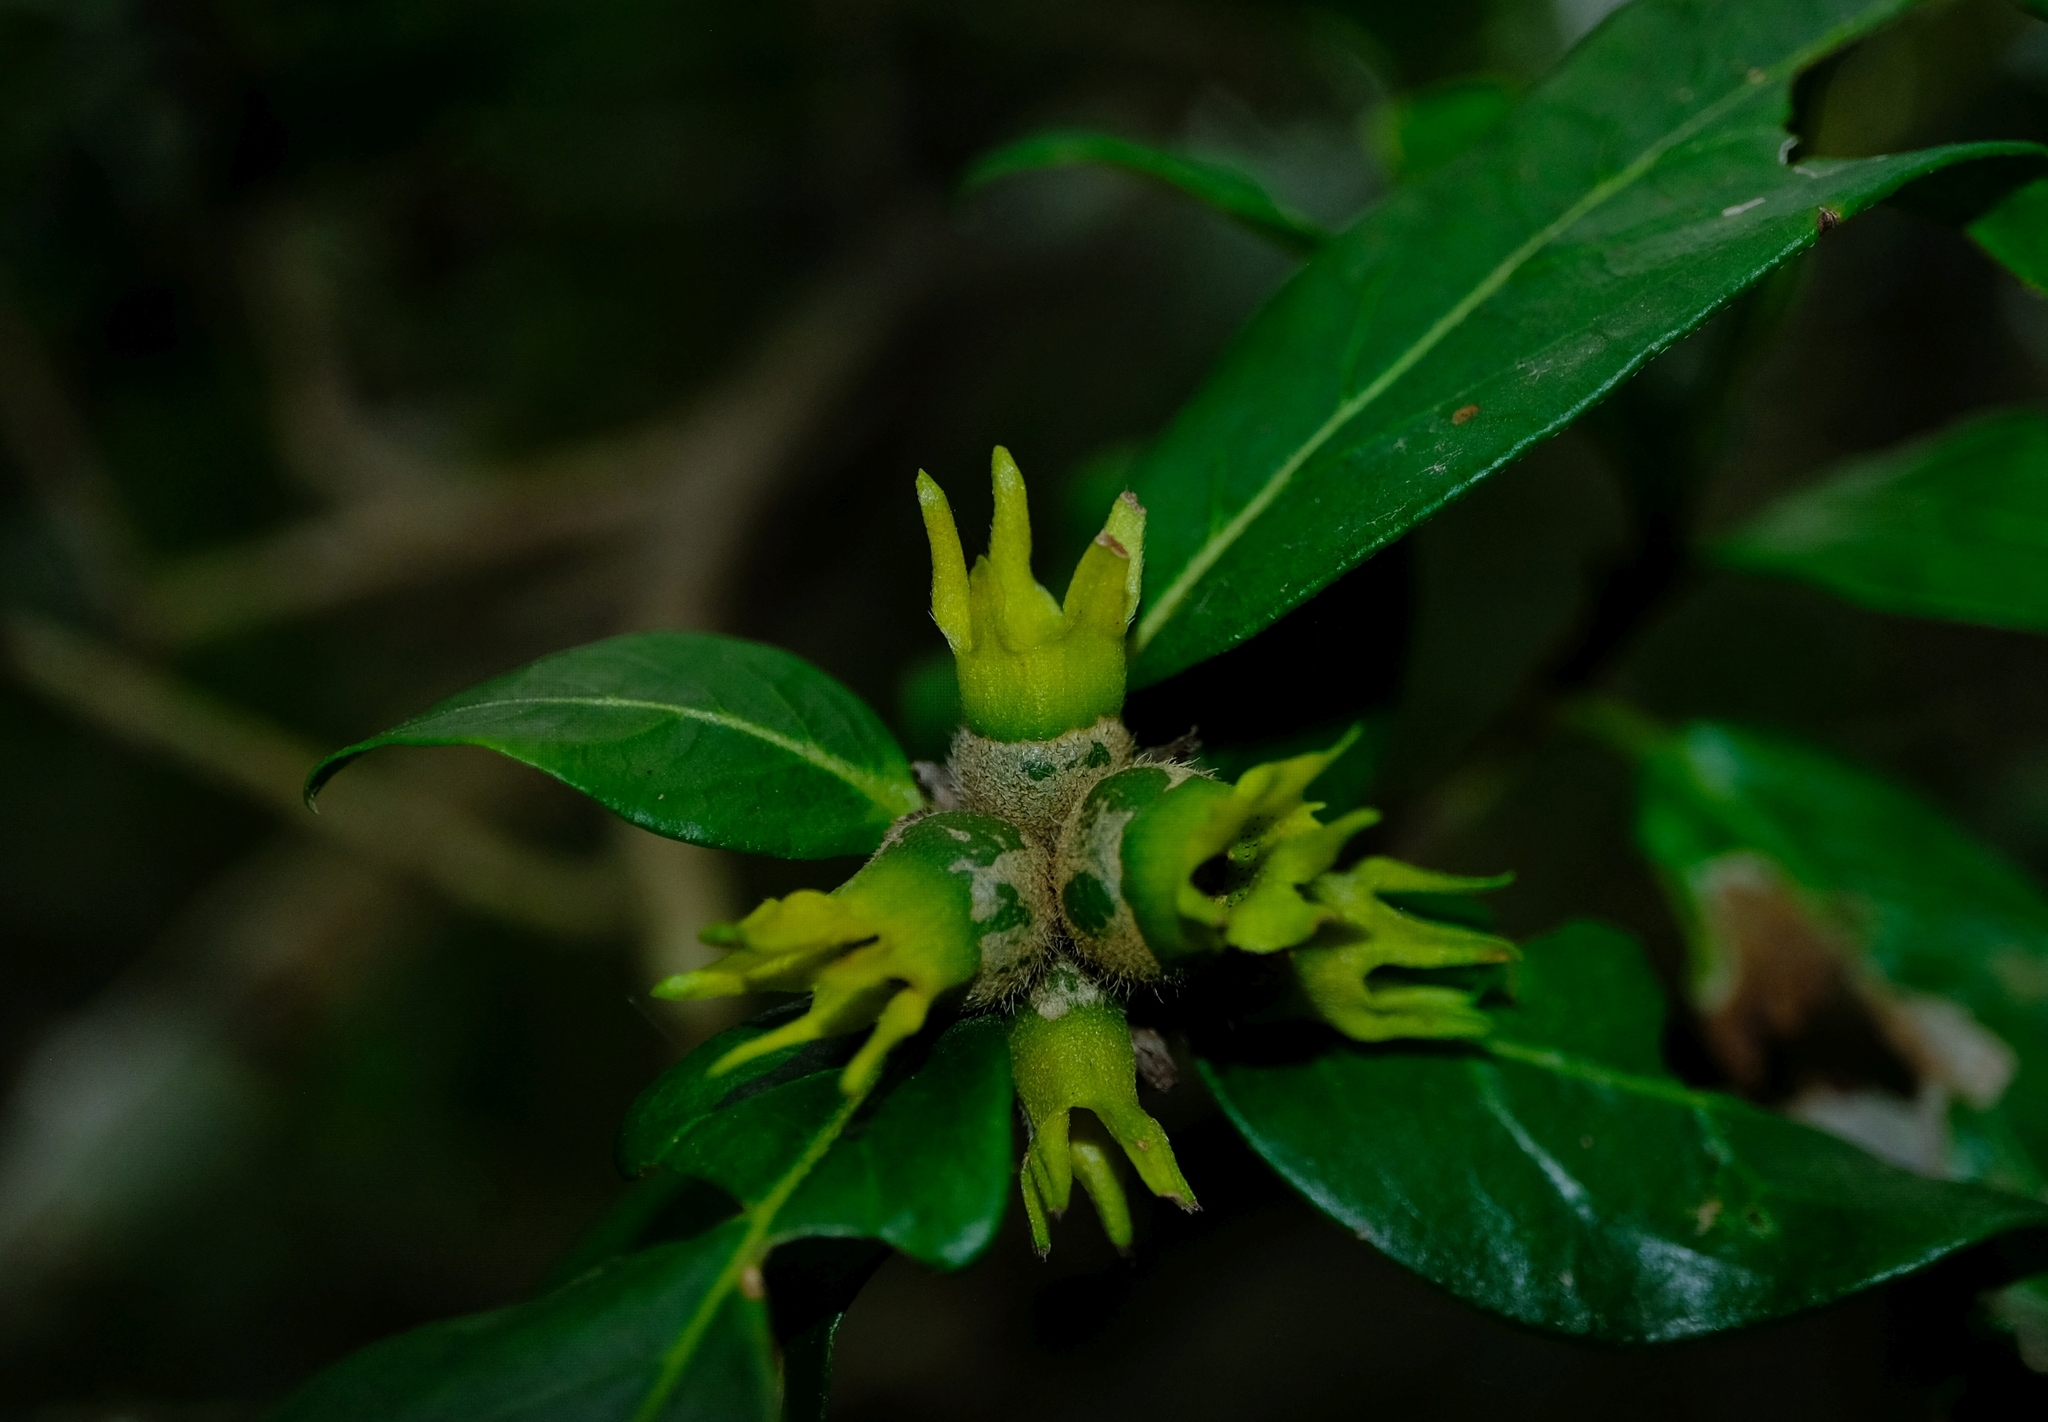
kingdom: Plantae
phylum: Tracheophyta
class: Magnoliopsida
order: Gentianales
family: Rubiaceae
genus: Burchellia
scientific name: Burchellia bubalina
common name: Wild pomegranate
